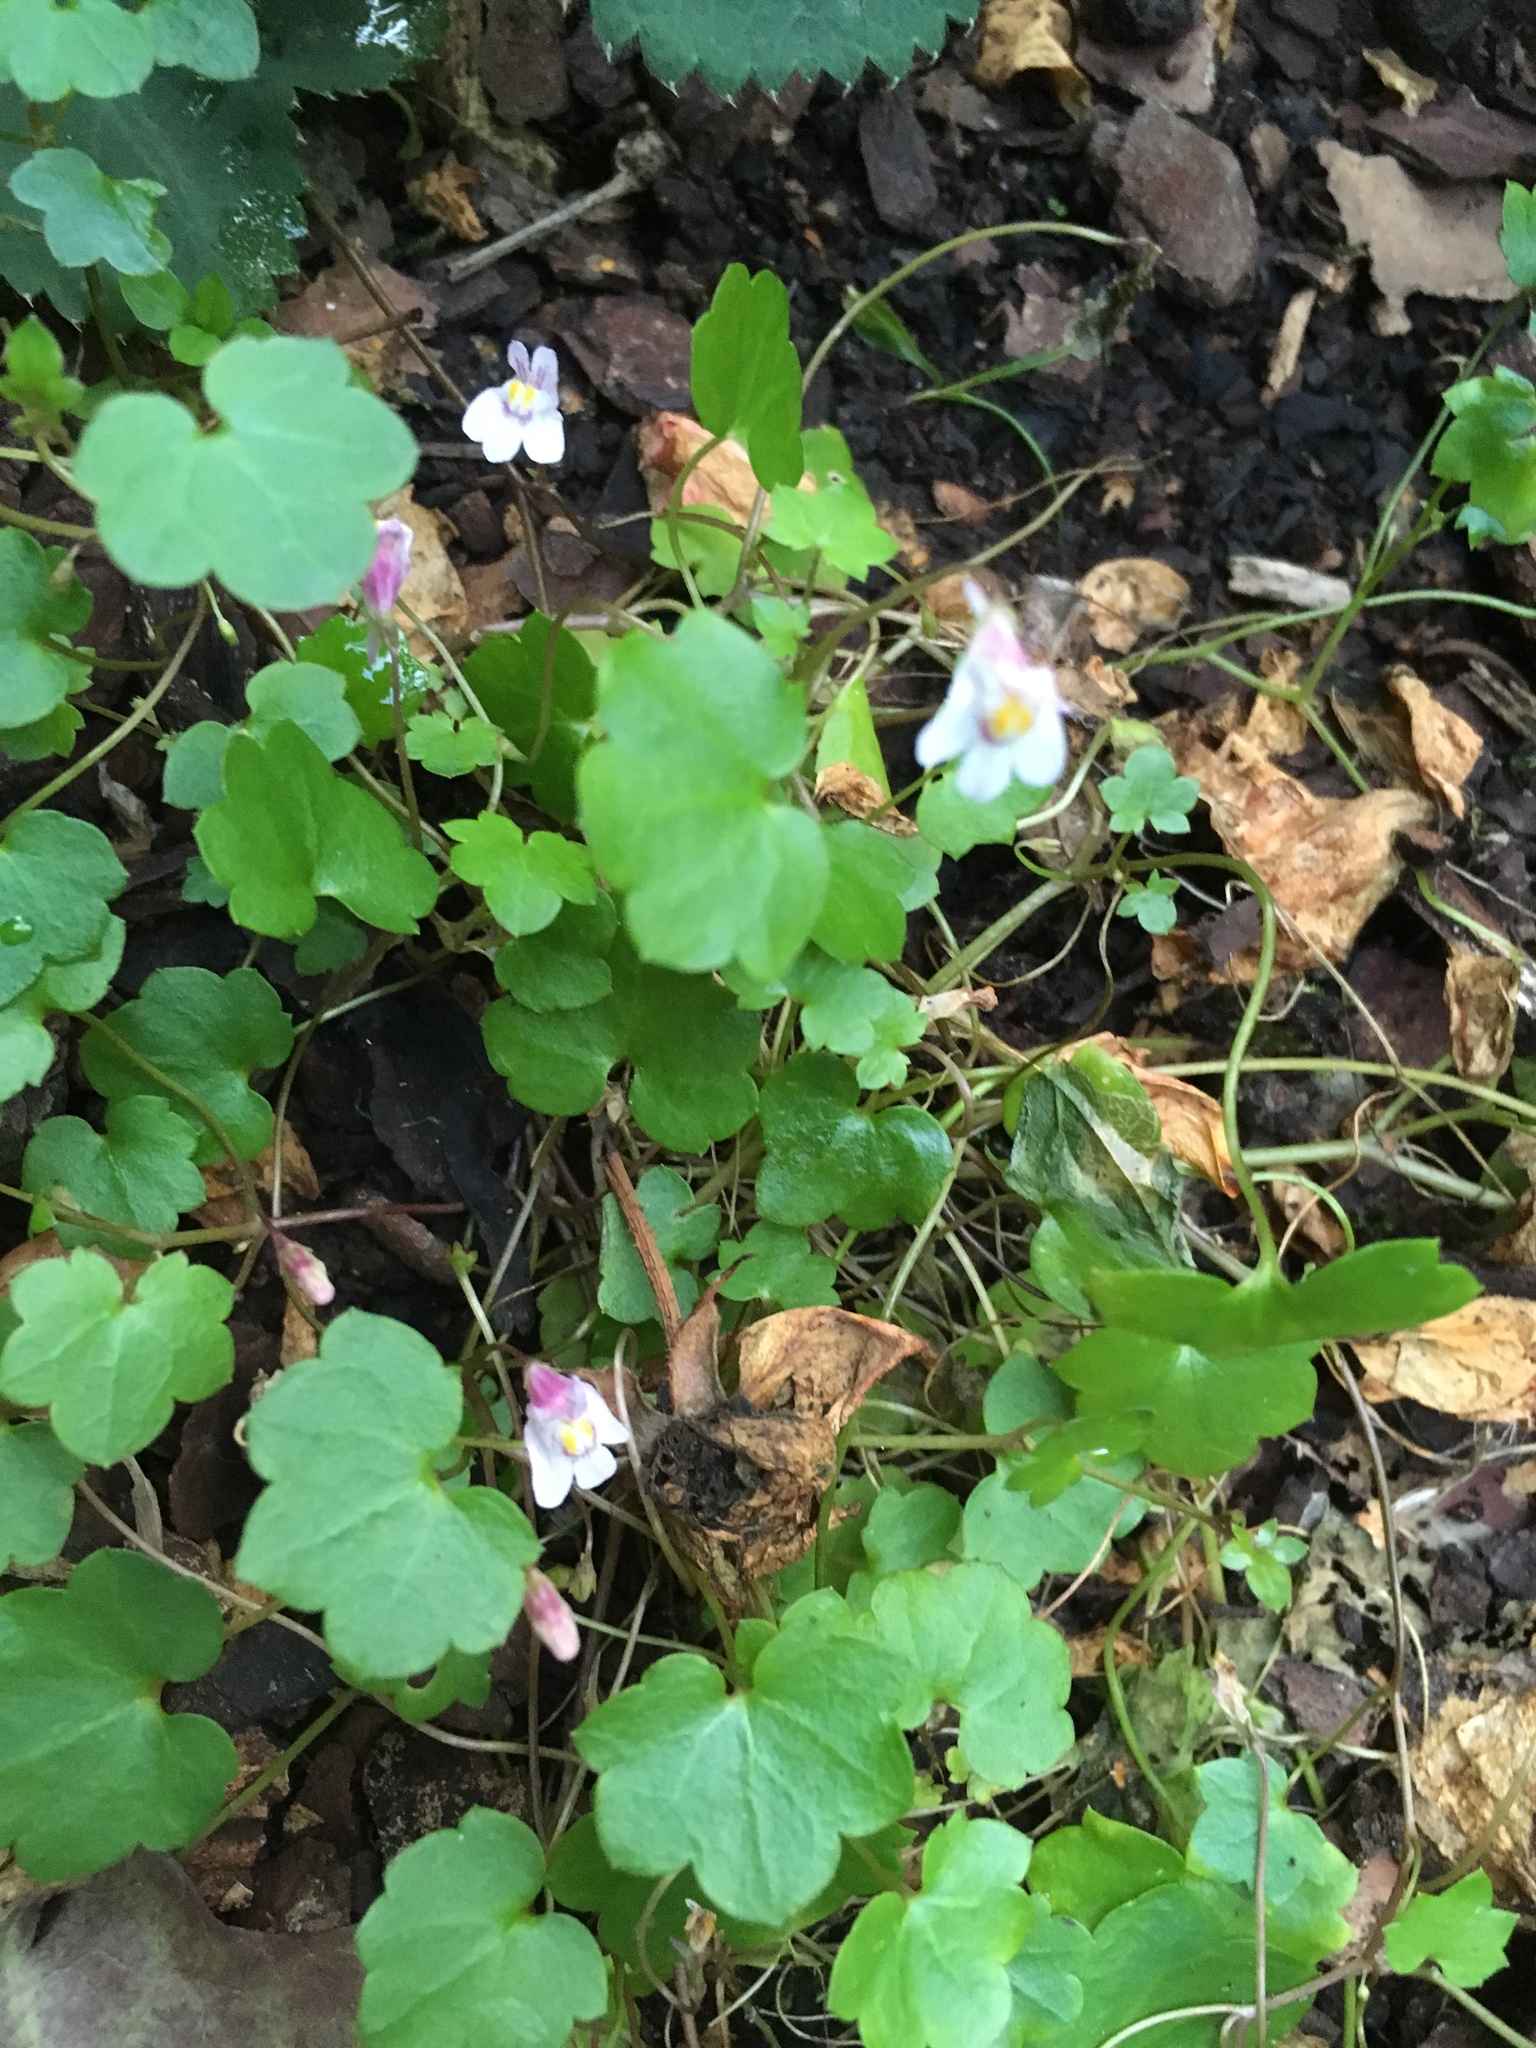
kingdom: Plantae
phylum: Tracheophyta
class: Magnoliopsida
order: Lamiales
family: Plantaginaceae
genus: Cymbalaria
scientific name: Cymbalaria muralis
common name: Ivy-leaved toadflax
